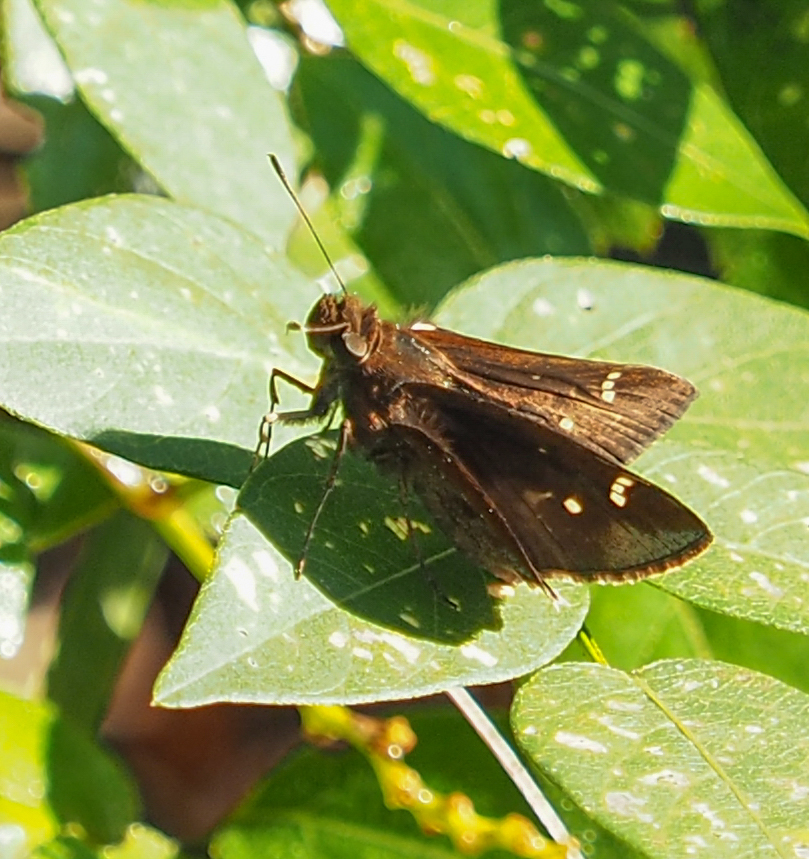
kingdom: Animalia
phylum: Arthropoda
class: Insecta
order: Lepidoptera
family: Hesperiidae
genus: Lerema
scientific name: Lerema accius
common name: Clouded skipper
